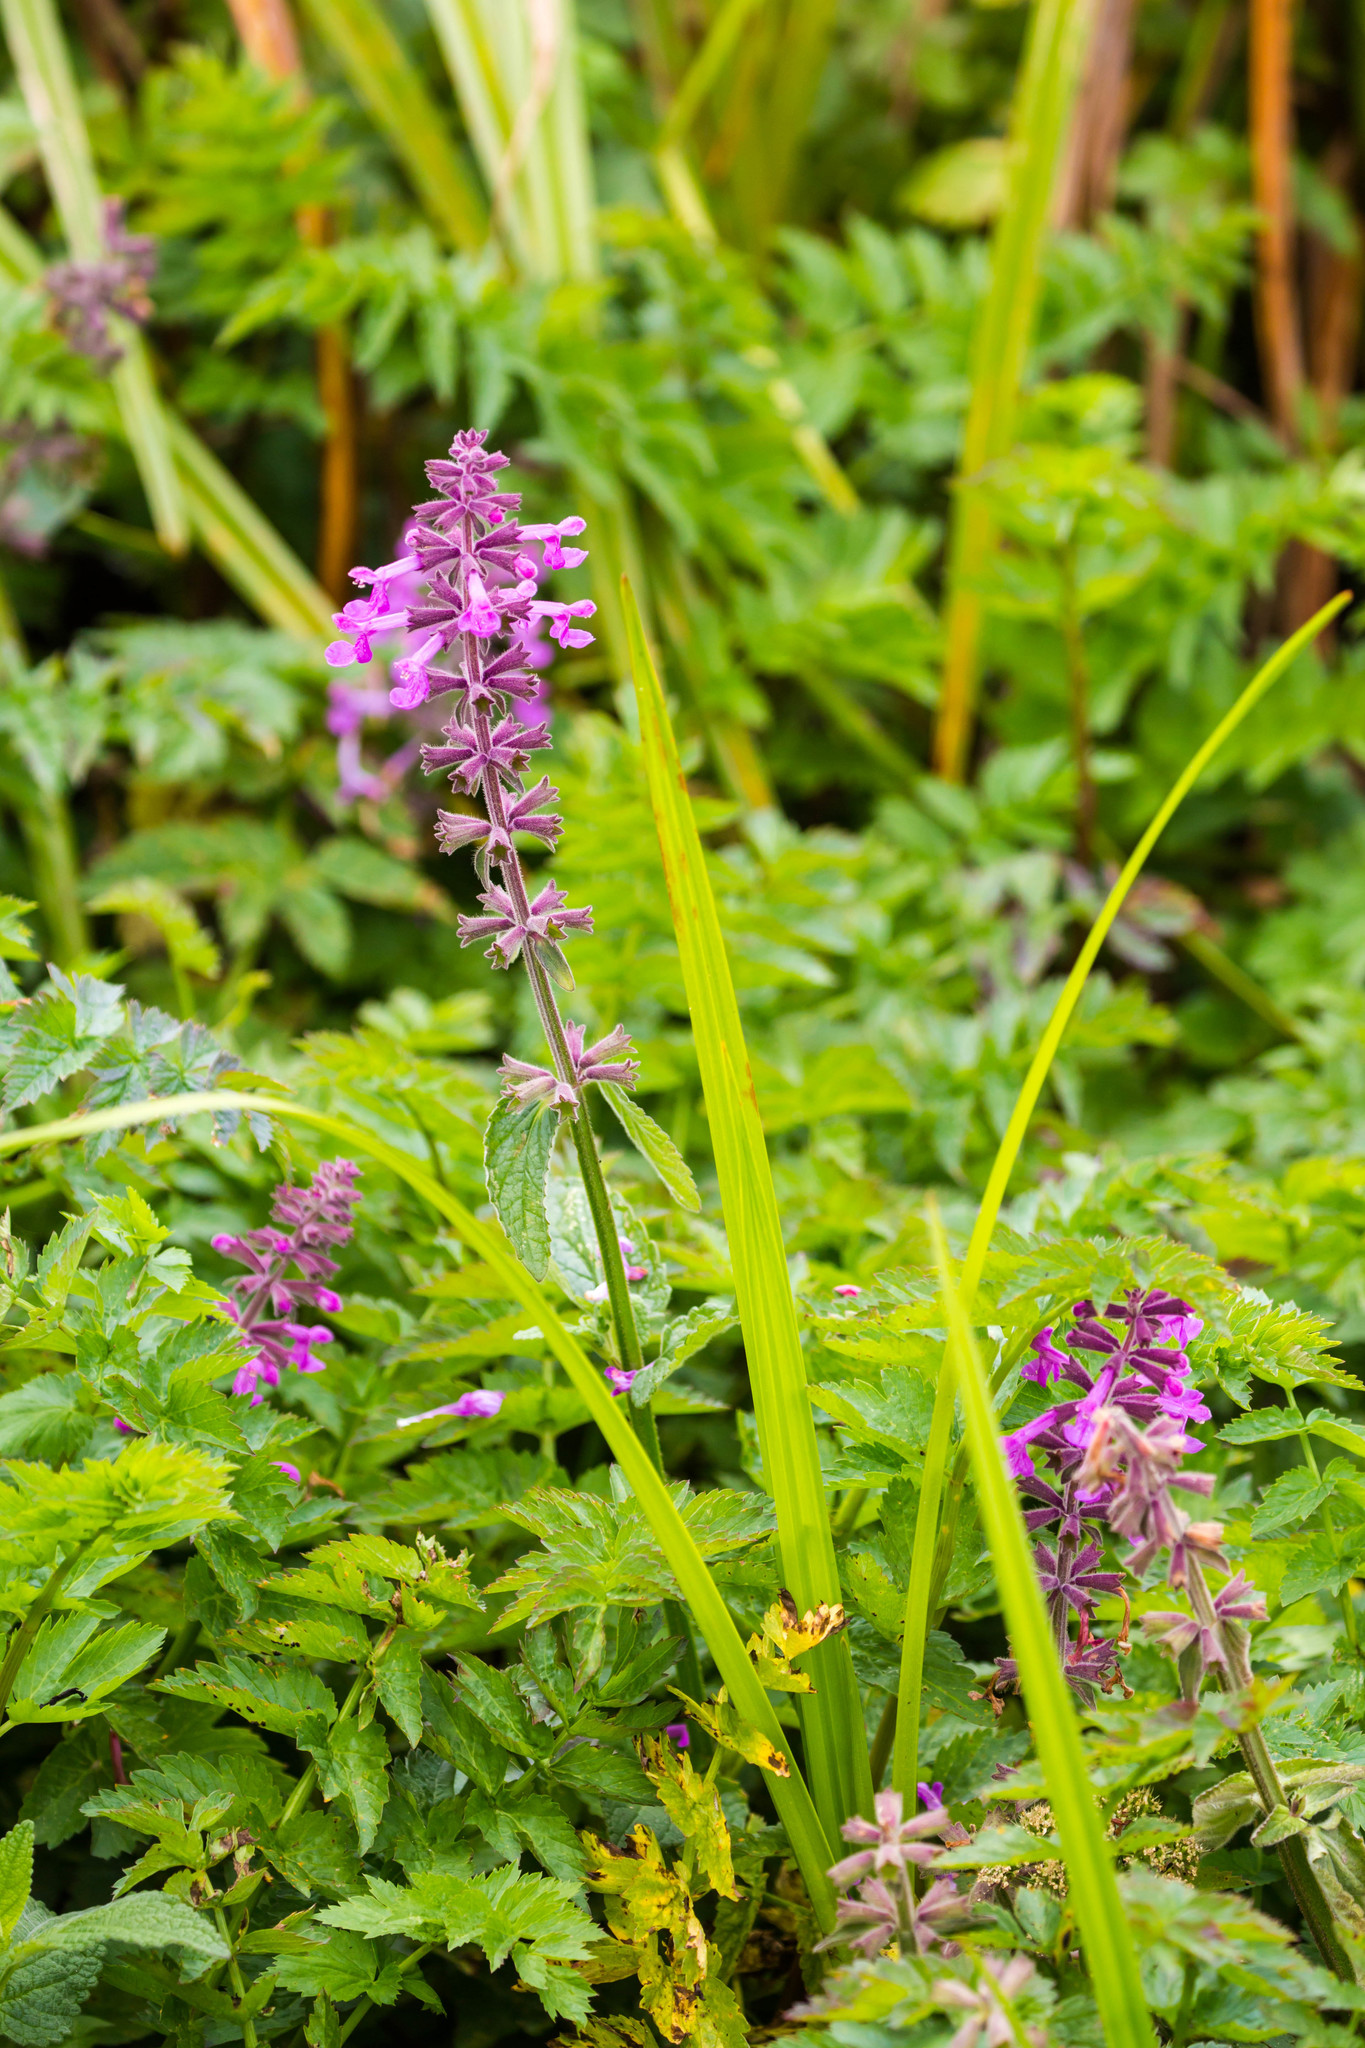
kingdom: Plantae
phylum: Tracheophyta
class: Magnoliopsida
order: Lamiales
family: Lamiaceae
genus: Stachys
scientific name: Stachys chamissonis
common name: Coastal hedge-nettle
